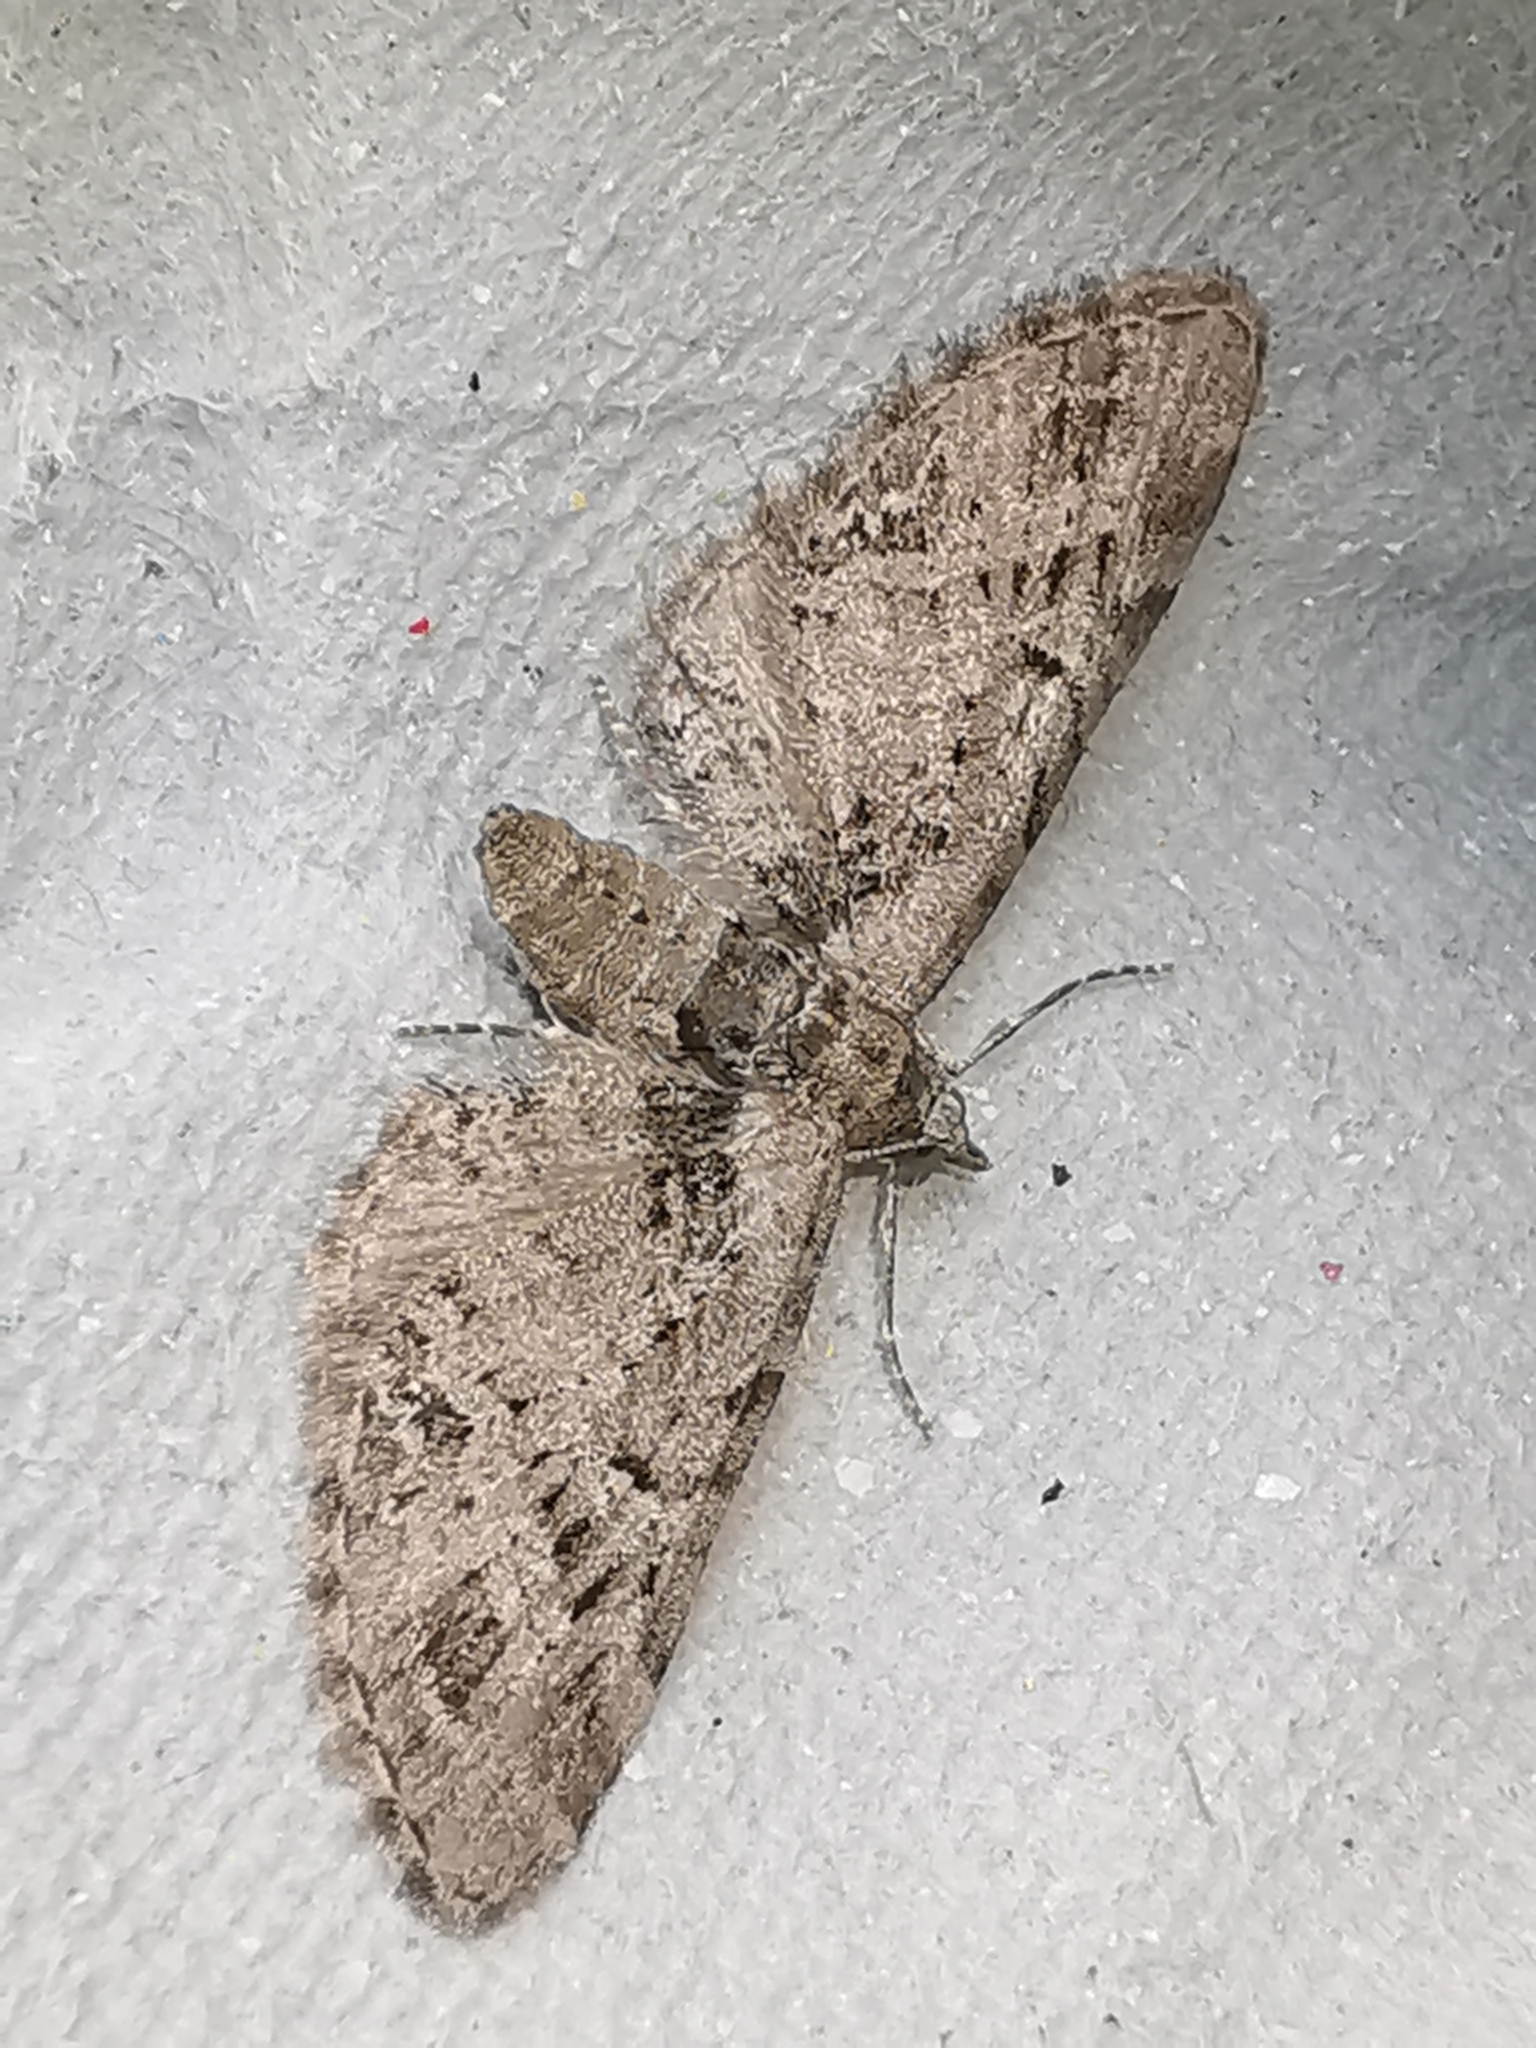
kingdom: Animalia
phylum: Arthropoda
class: Insecta
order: Lepidoptera
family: Geometridae
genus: Eupithecia
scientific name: Eupithecia exiguata
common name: Mottled pug
